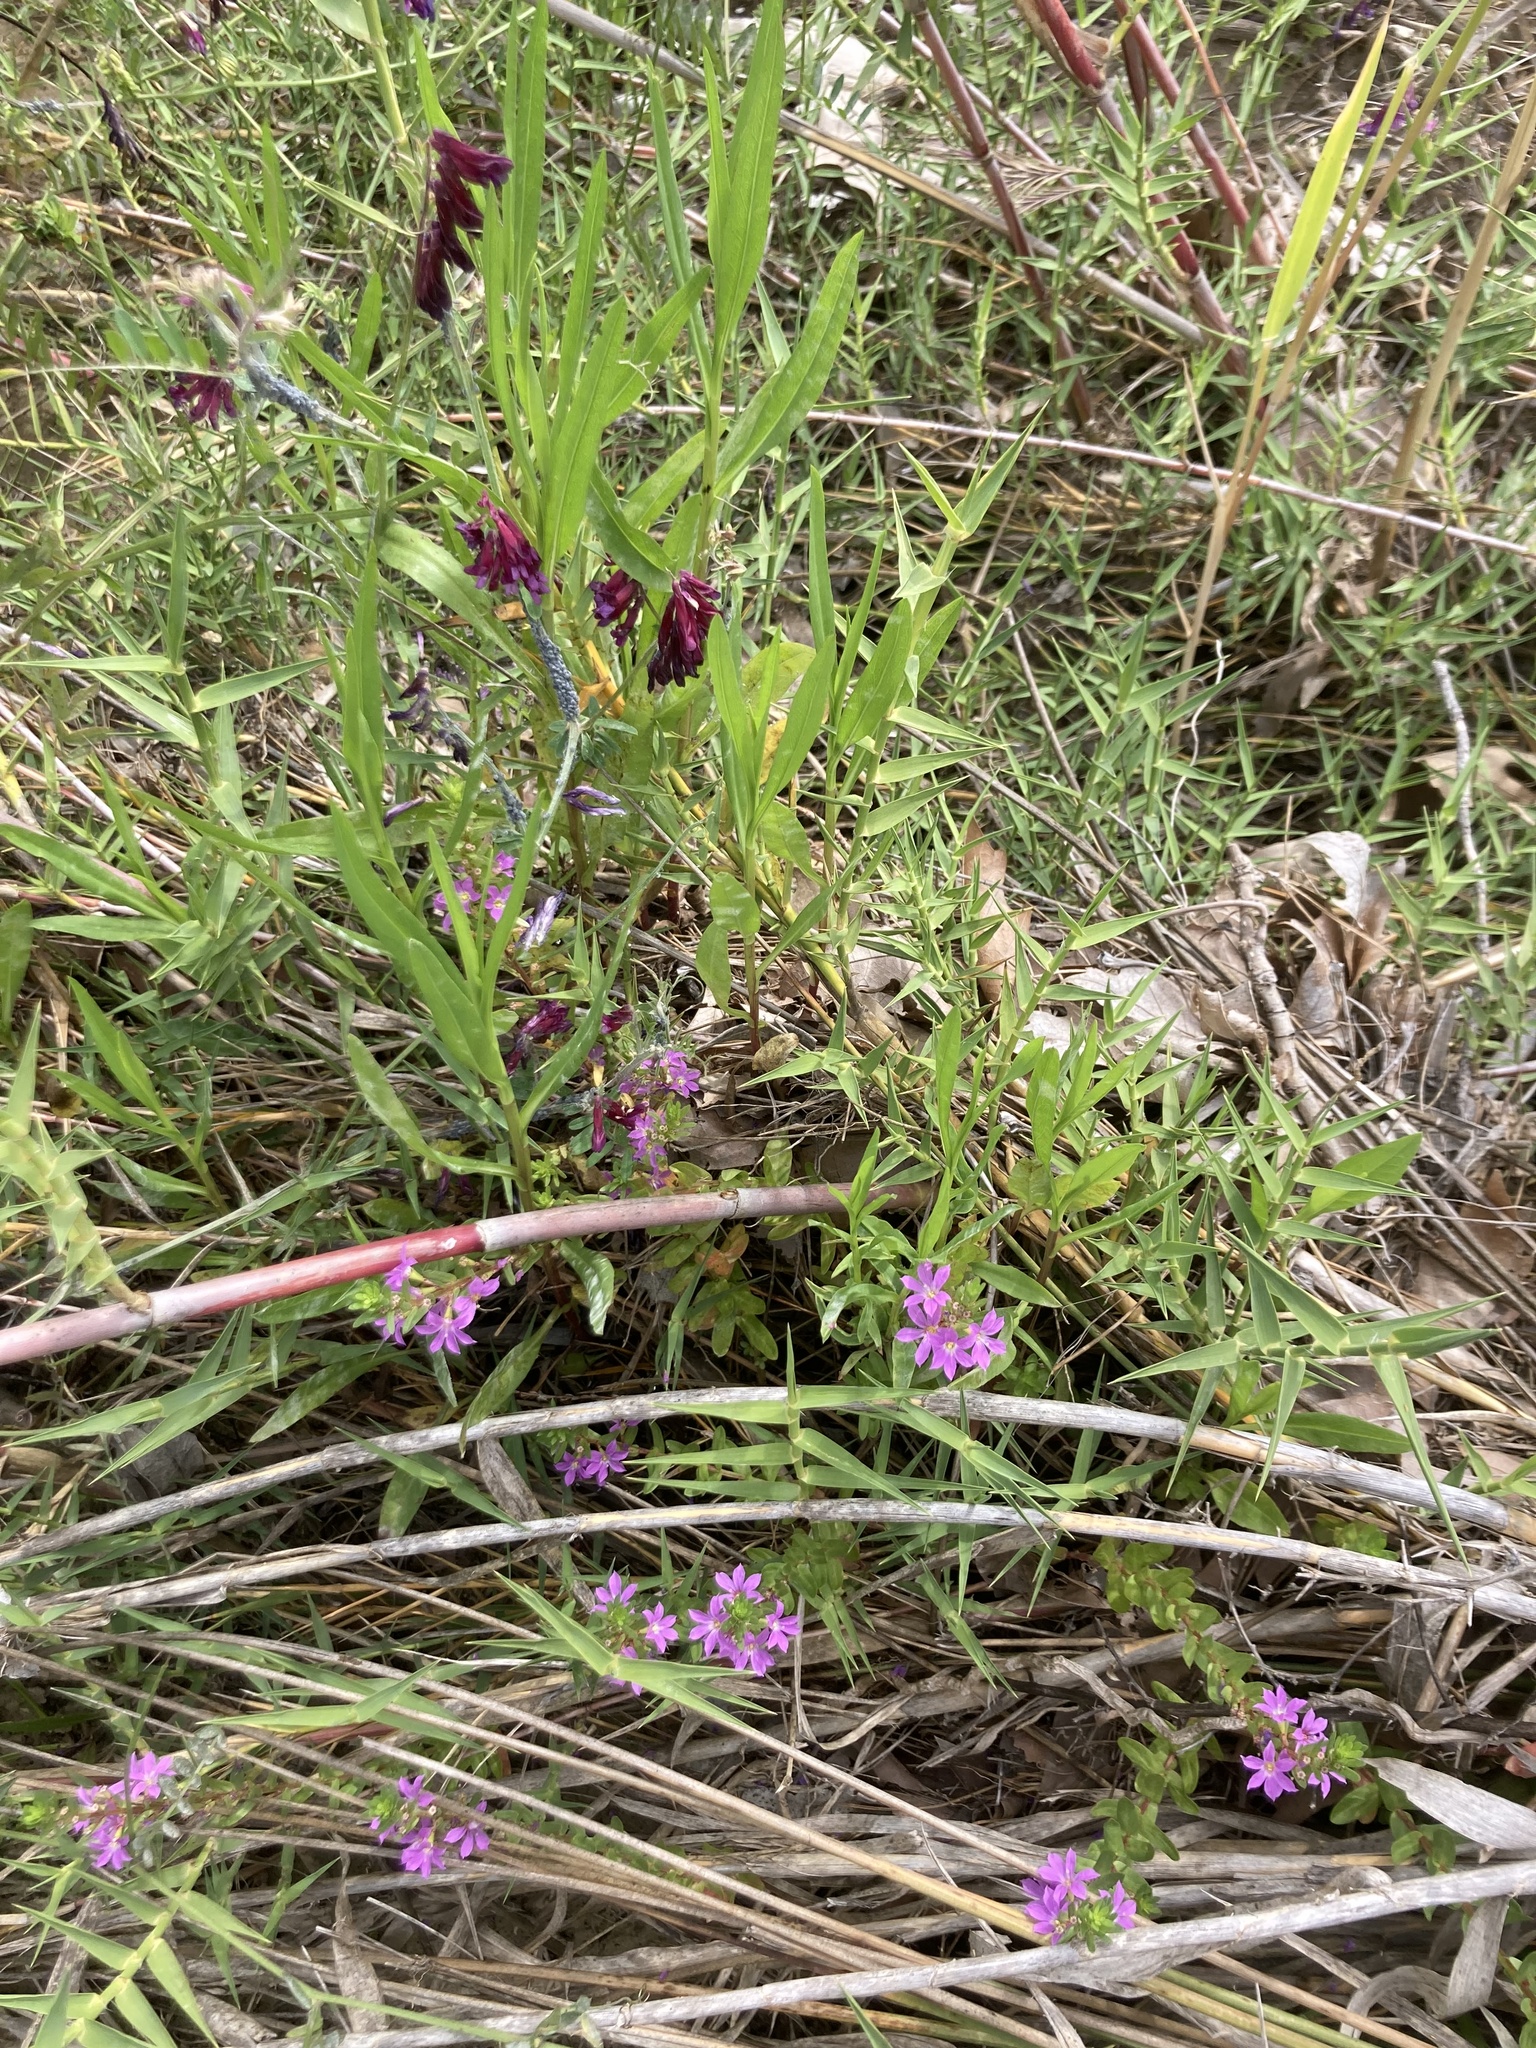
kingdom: Plantae
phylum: Tracheophyta
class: Magnoliopsida
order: Myrtales
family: Lythraceae
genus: Lythrum
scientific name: Lythrum junceum
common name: False grass-poly
